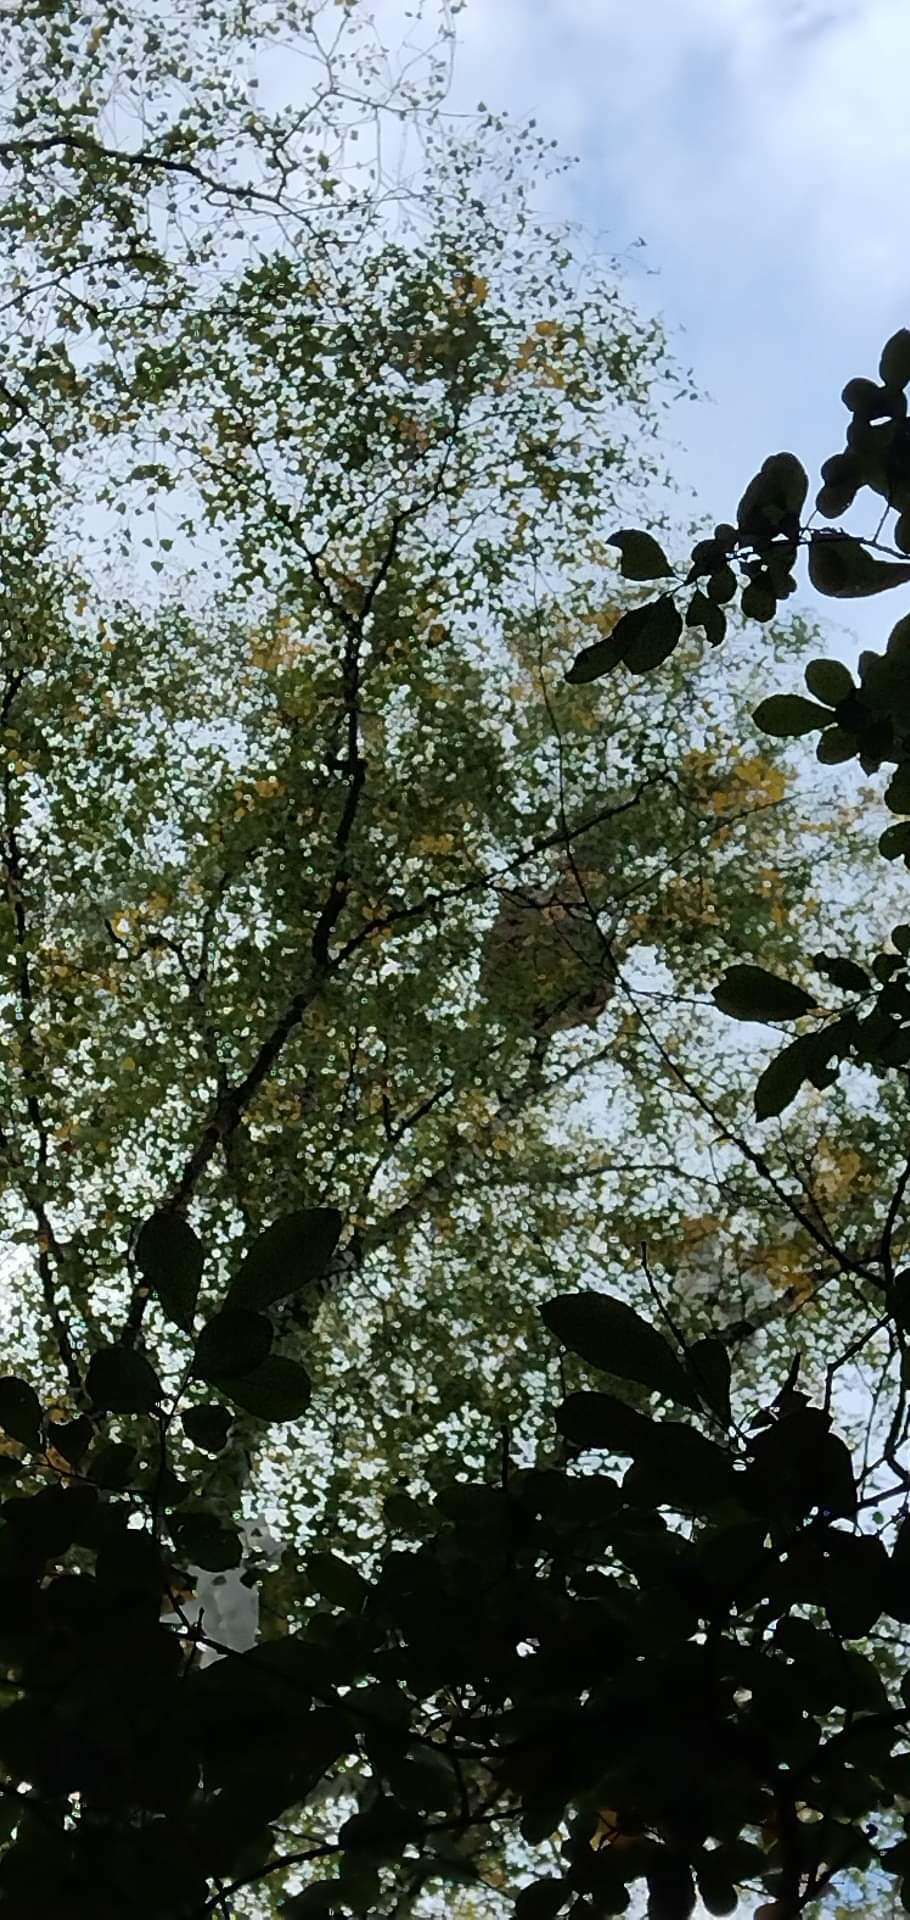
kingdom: Animalia
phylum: Arthropoda
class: Insecta
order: Hymenoptera
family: Vespidae
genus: Vespa
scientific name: Vespa velutina
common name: Asian hornet
